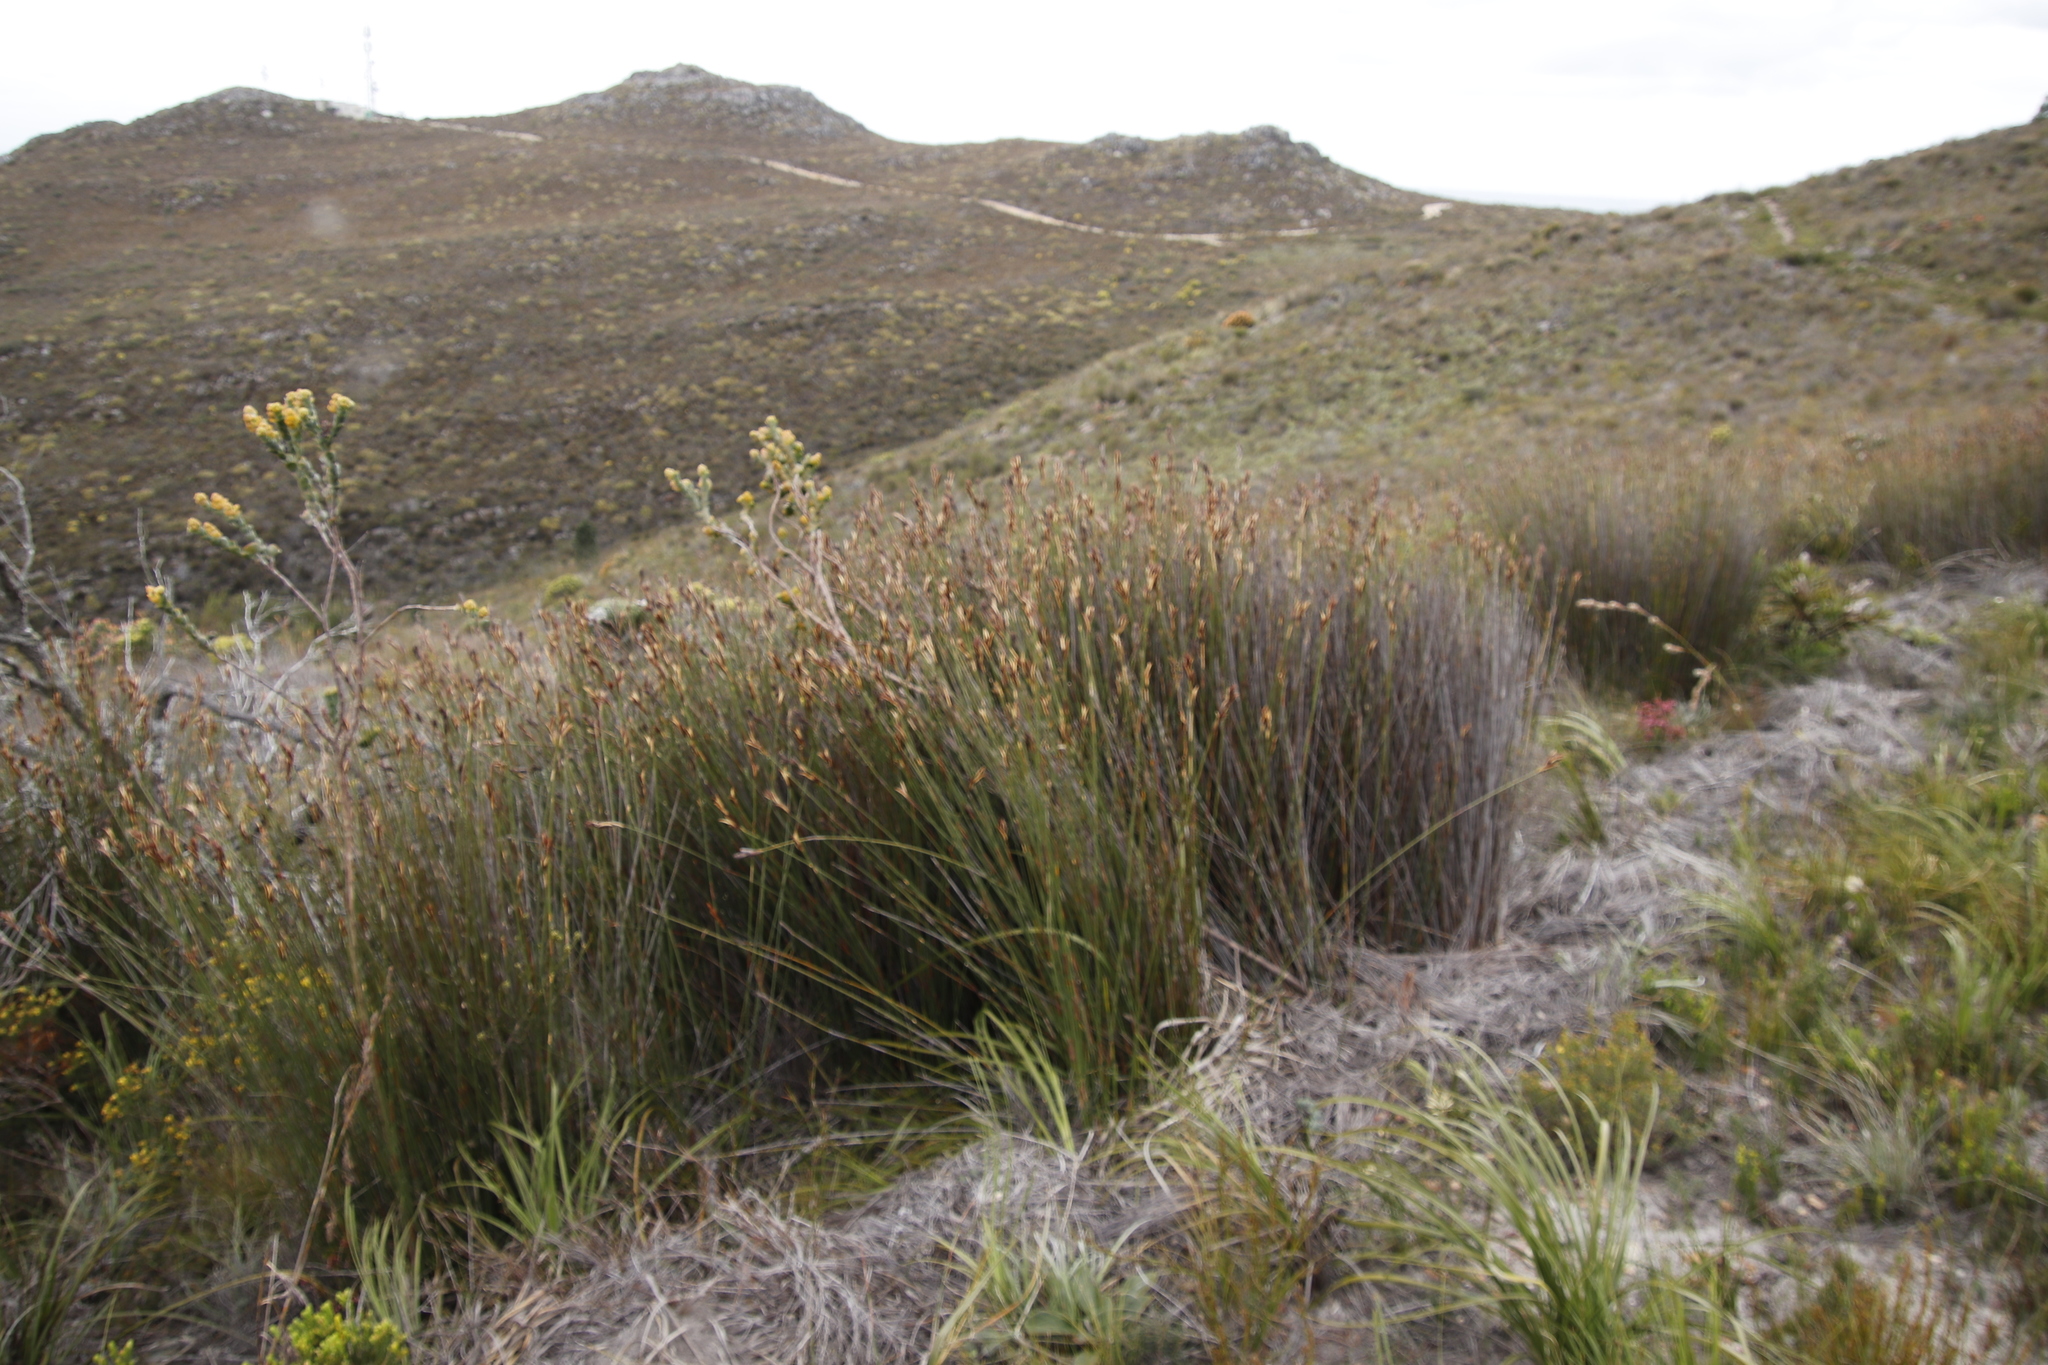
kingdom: Plantae
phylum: Tracheophyta
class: Magnoliopsida
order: Santalales
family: Thesiaceae
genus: Thesium
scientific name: Thesium euphorbioides
